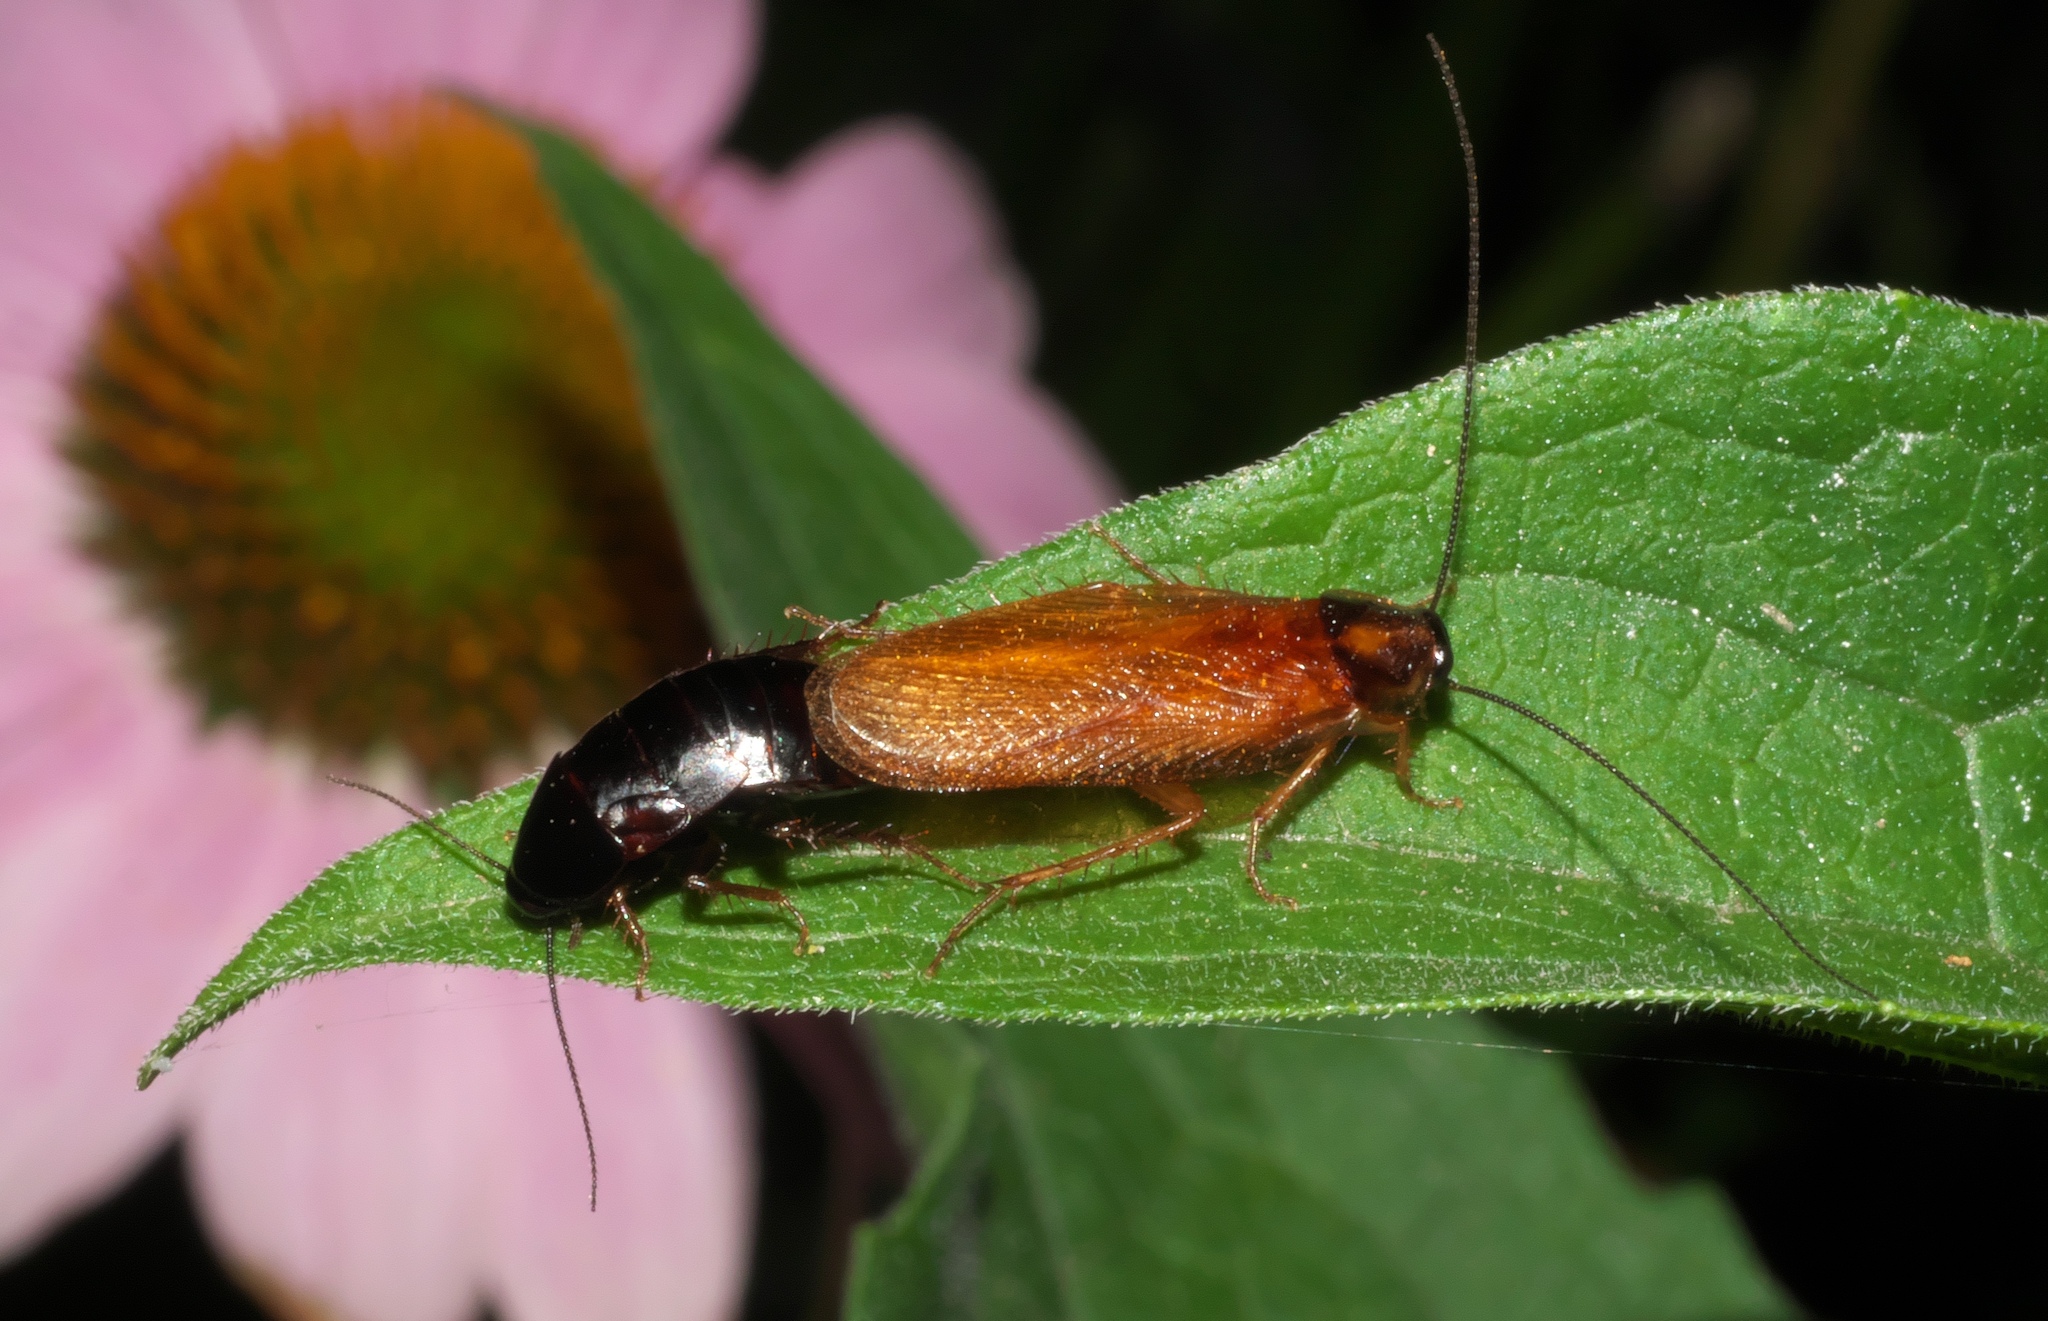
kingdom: Animalia
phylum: Arthropoda
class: Insecta
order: Blattodea
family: Ectobiidae
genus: Parcoblatta
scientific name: Parcoblatta uhleriana
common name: Uhler's wood cockroach
